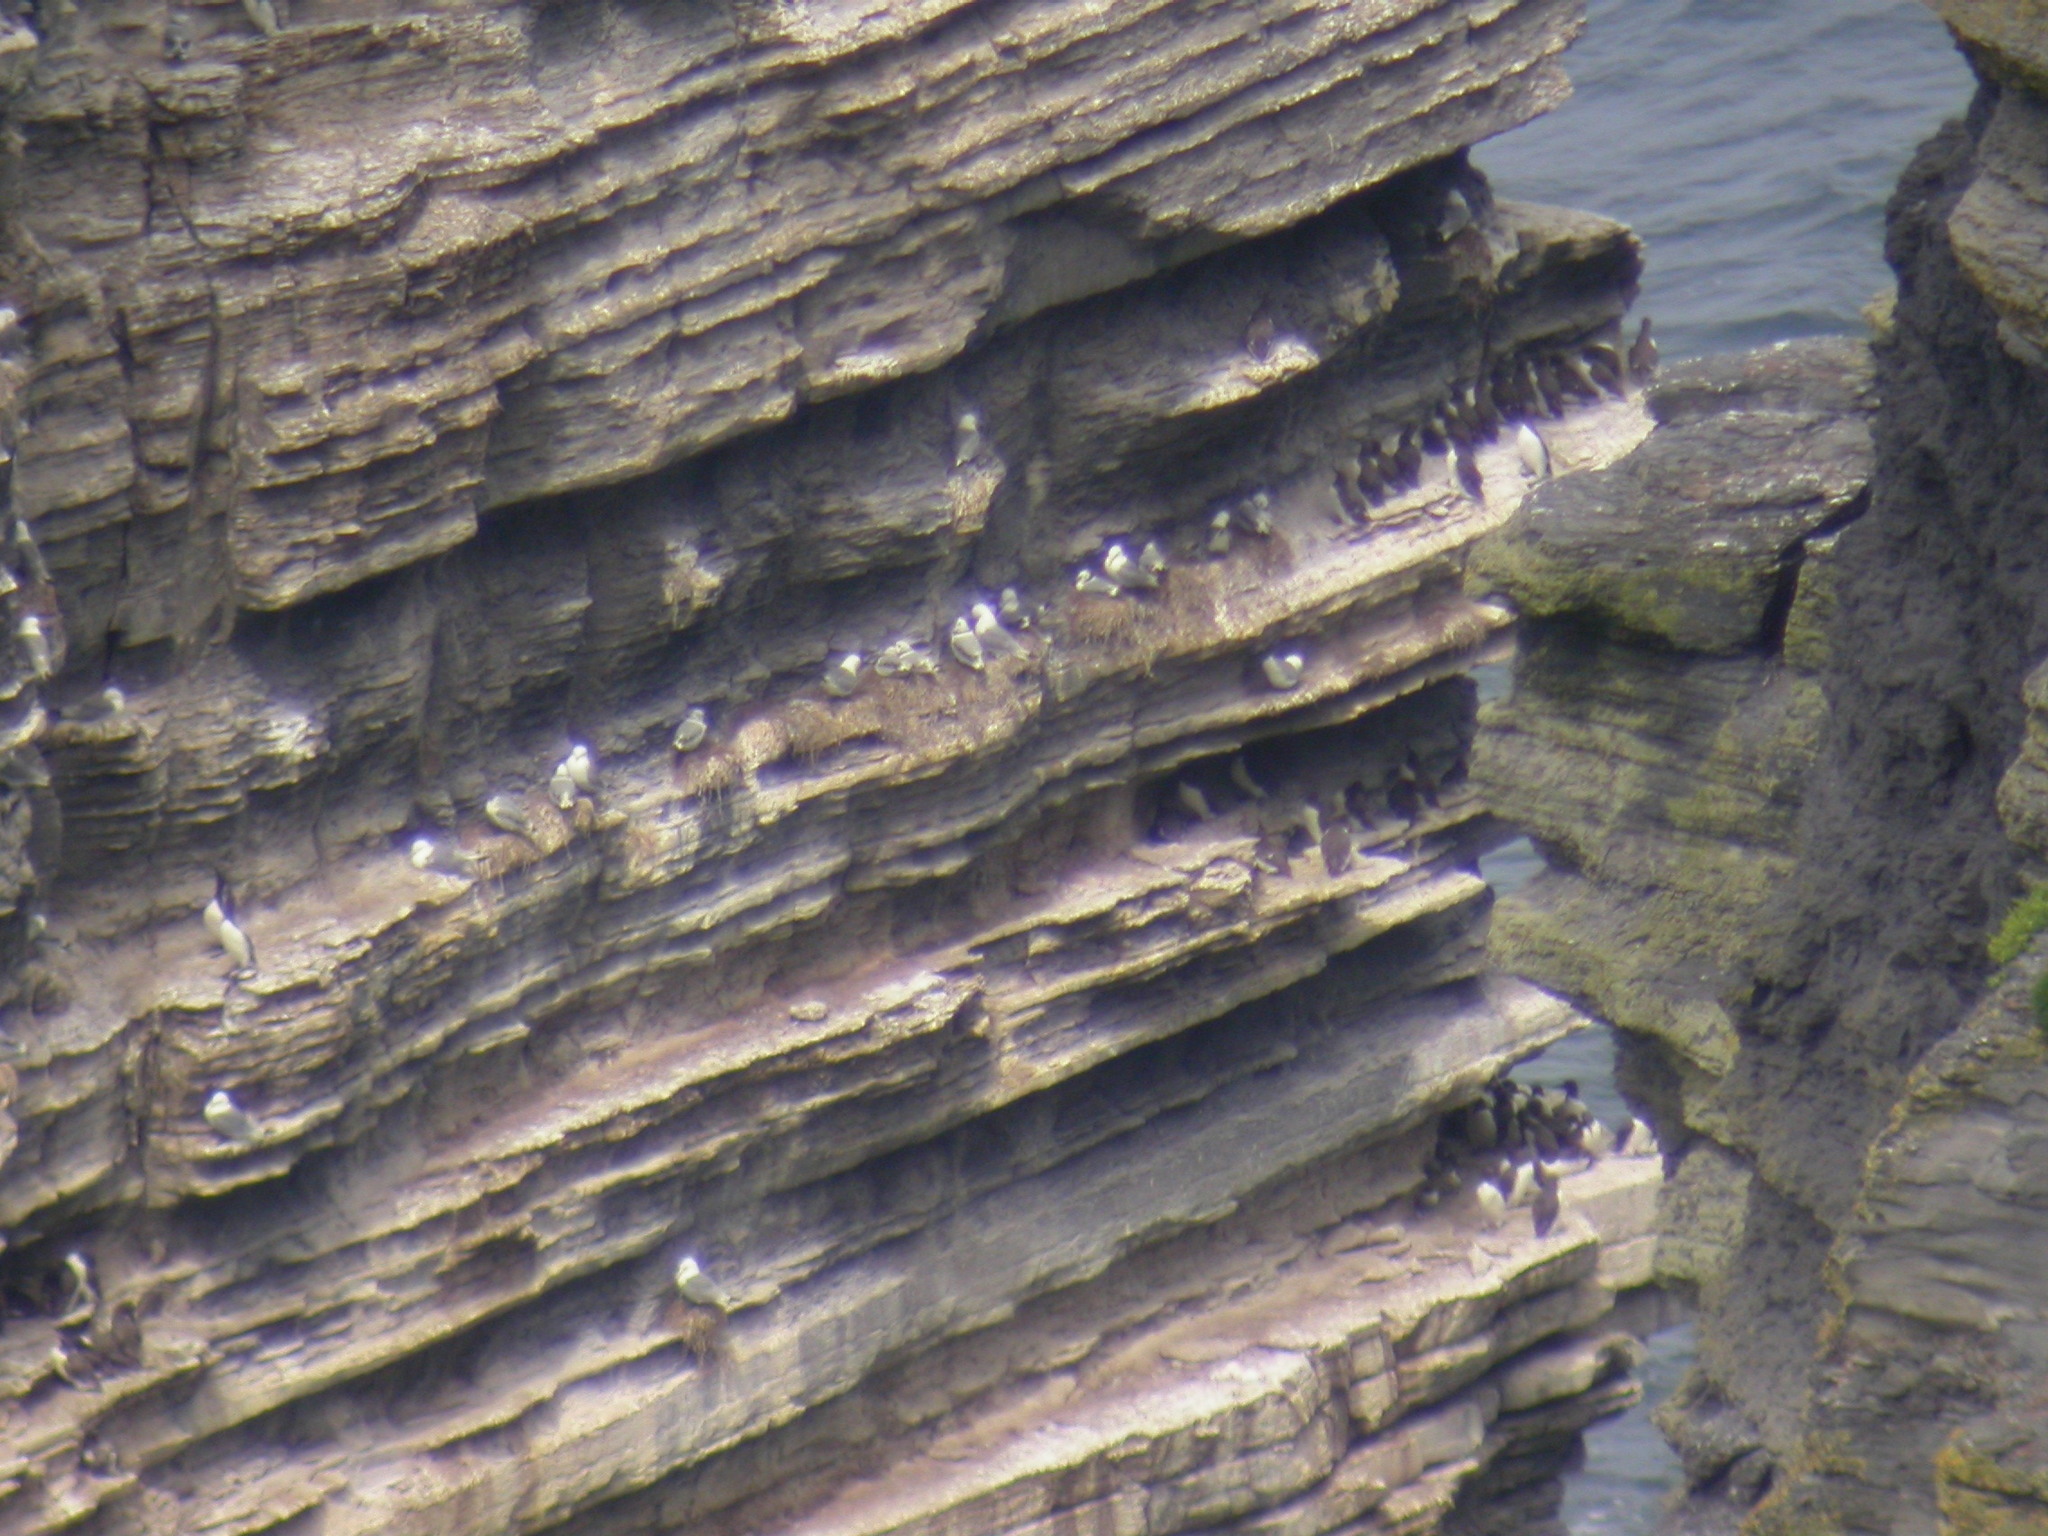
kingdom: Animalia
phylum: Chordata
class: Aves
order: Charadriiformes
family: Laridae
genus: Rissa
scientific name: Rissa tridactyla
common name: Black-legged kittiwake
